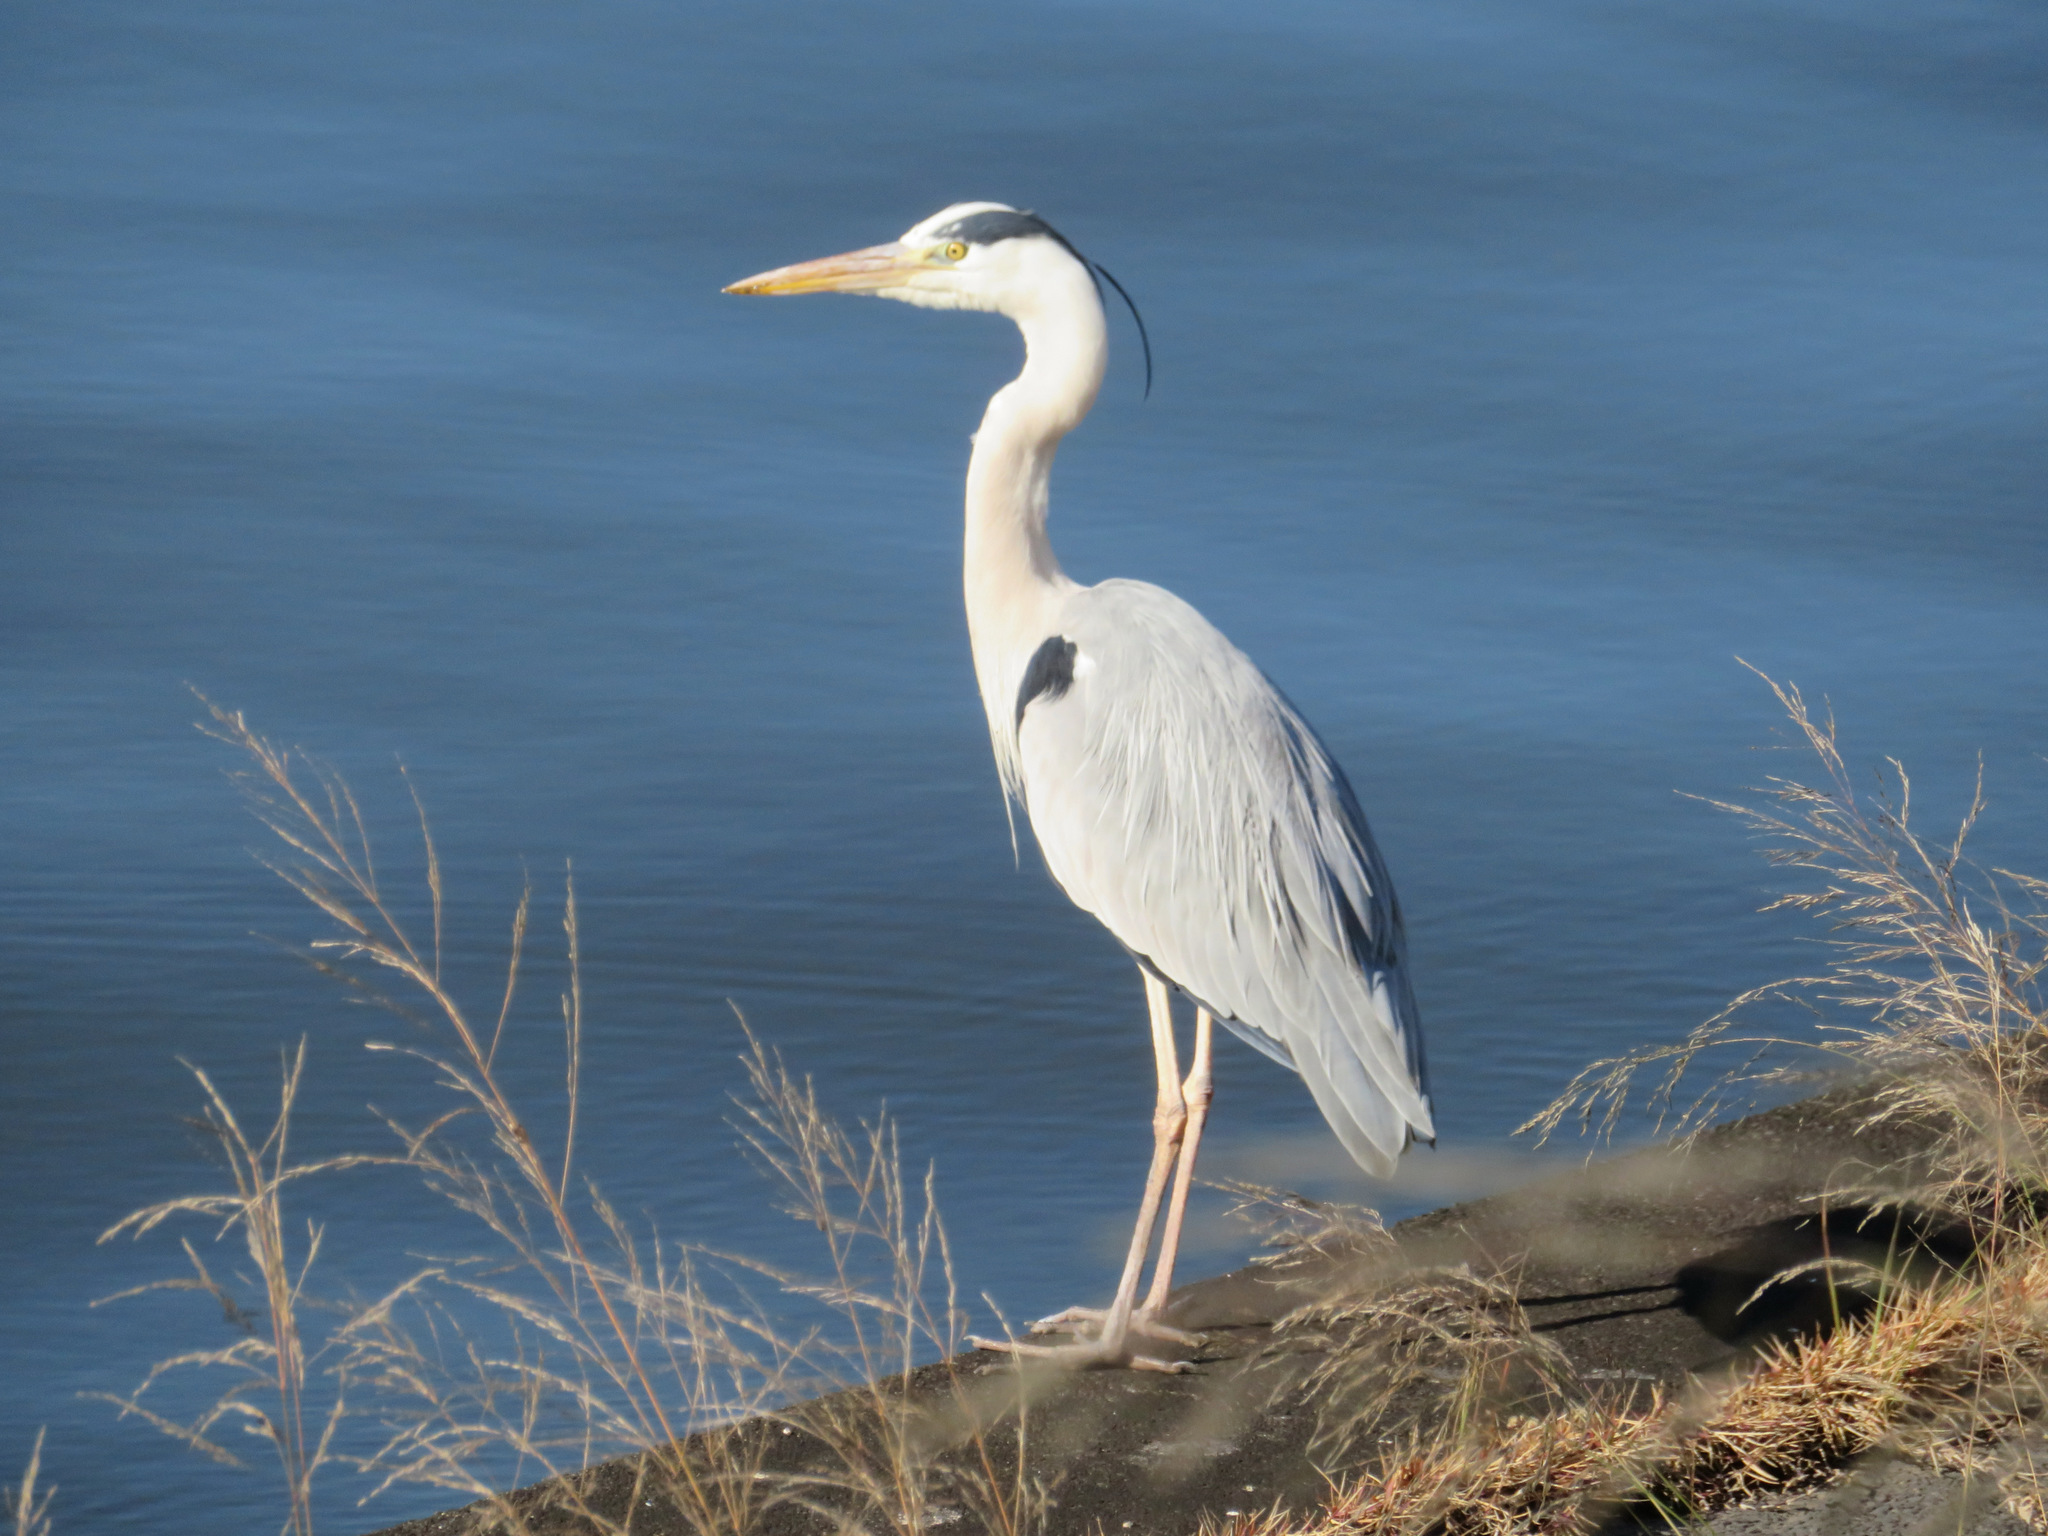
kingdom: Animalia
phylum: Chordata
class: Aves
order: Pelecaniformes
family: Ardeidae
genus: Ardea
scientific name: Ardea cinerea
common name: Grey heron
